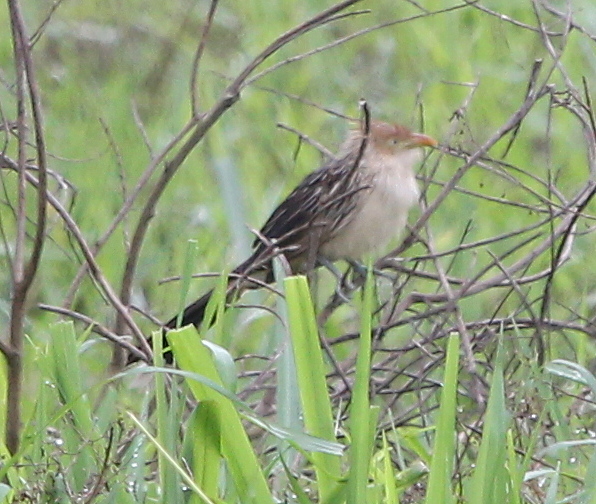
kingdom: Animalia
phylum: Chordata
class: Aves
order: Cuculiformes
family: Cuculidae
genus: Guira
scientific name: Guira guira
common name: Guira cuckoo
